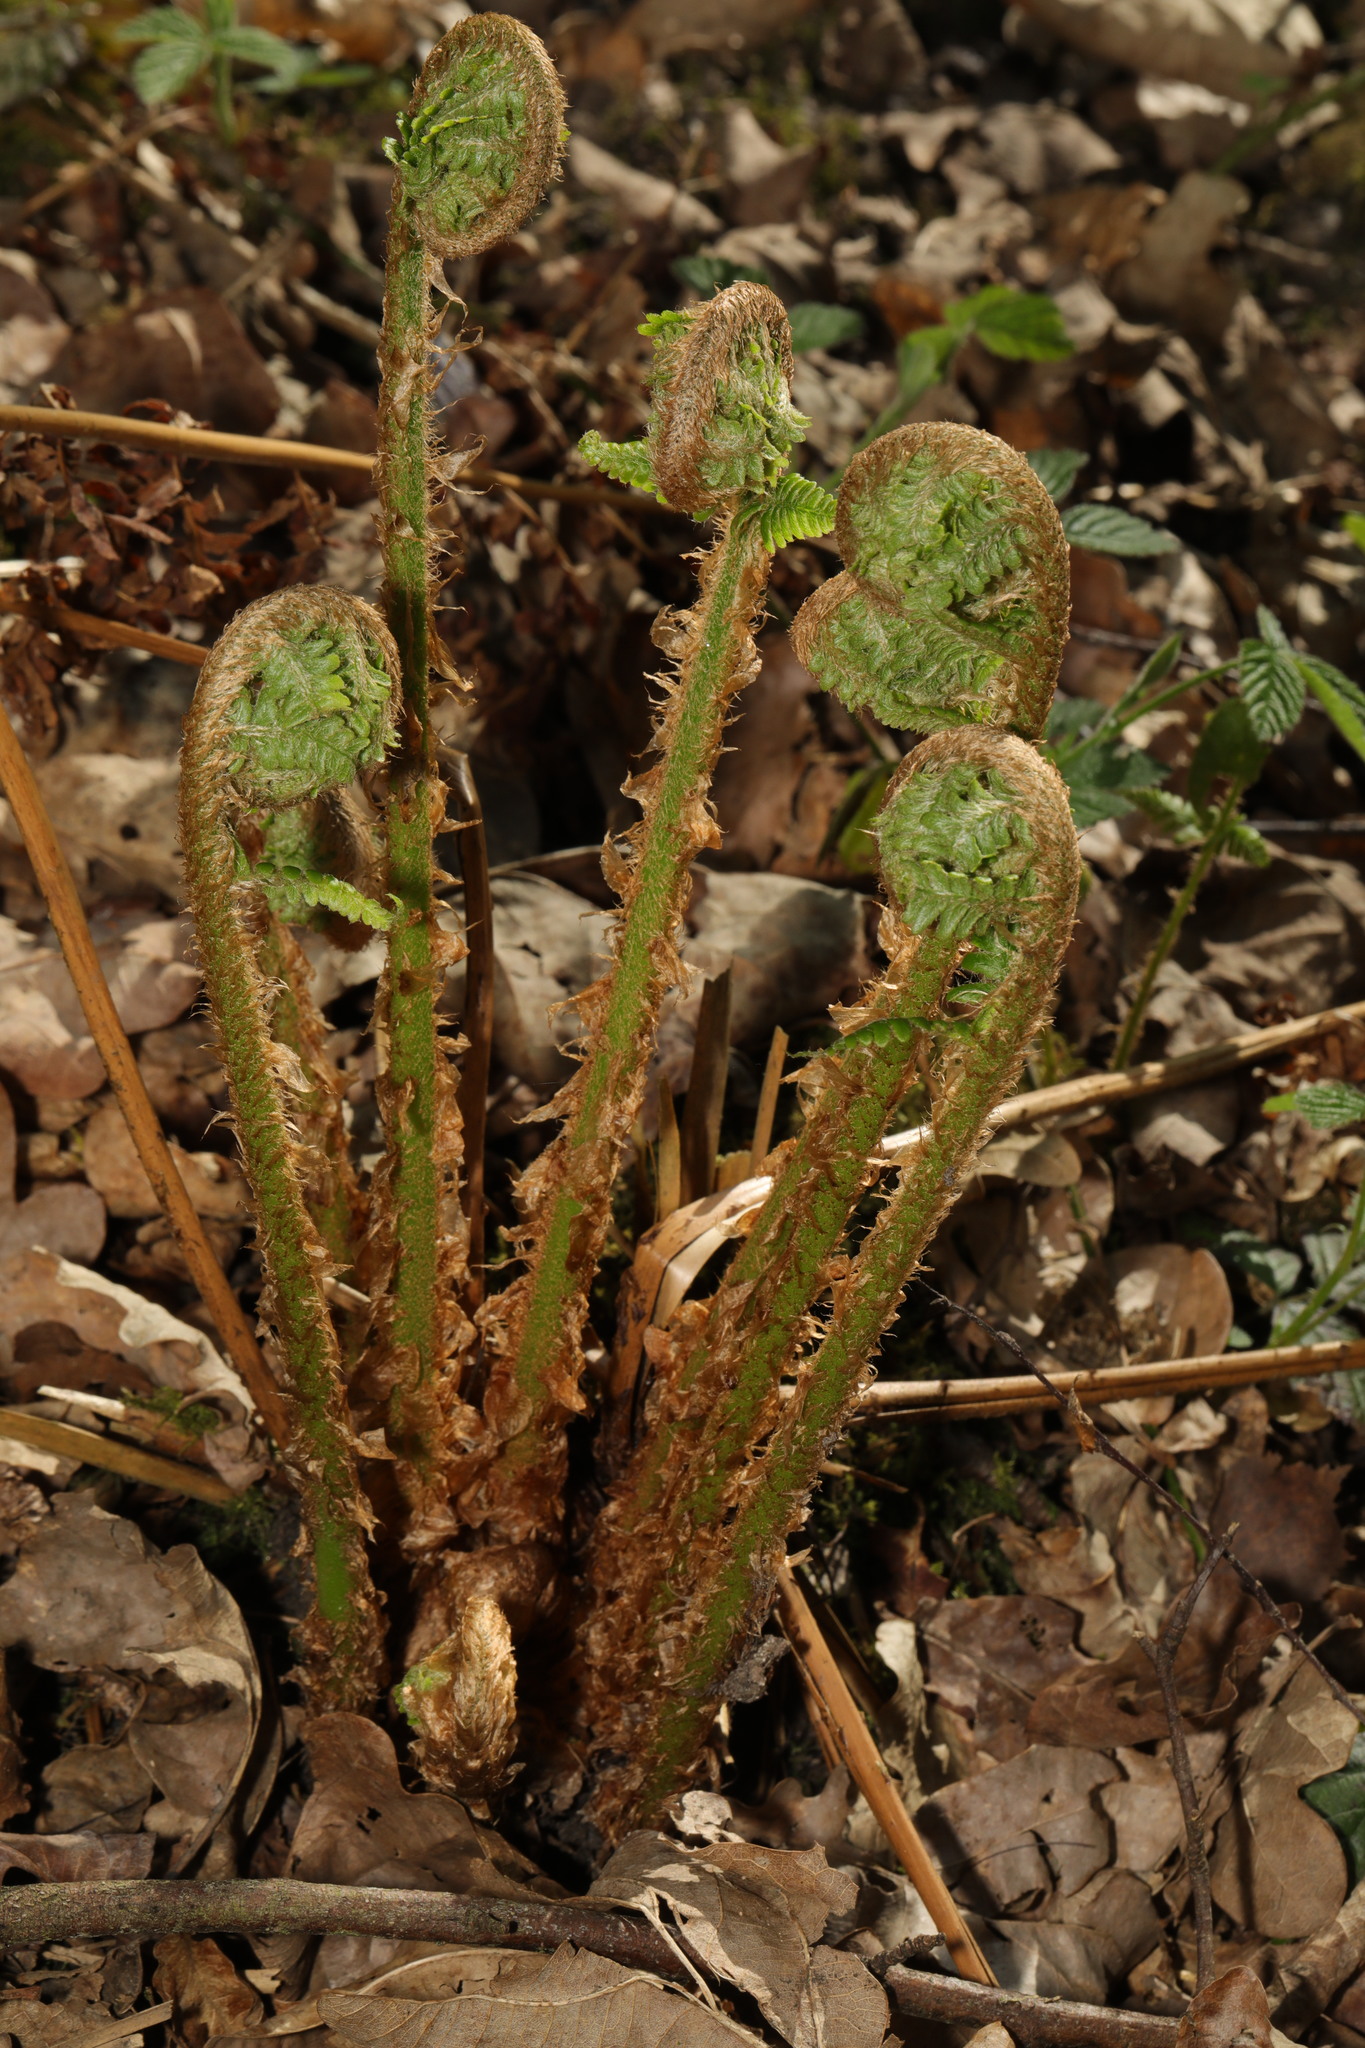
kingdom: Plantae
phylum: Tracheophyta
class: Polypodiopsida
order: Polypodiales
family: Dryopteridaceae
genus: Dryopteris
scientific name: Dryopteris
